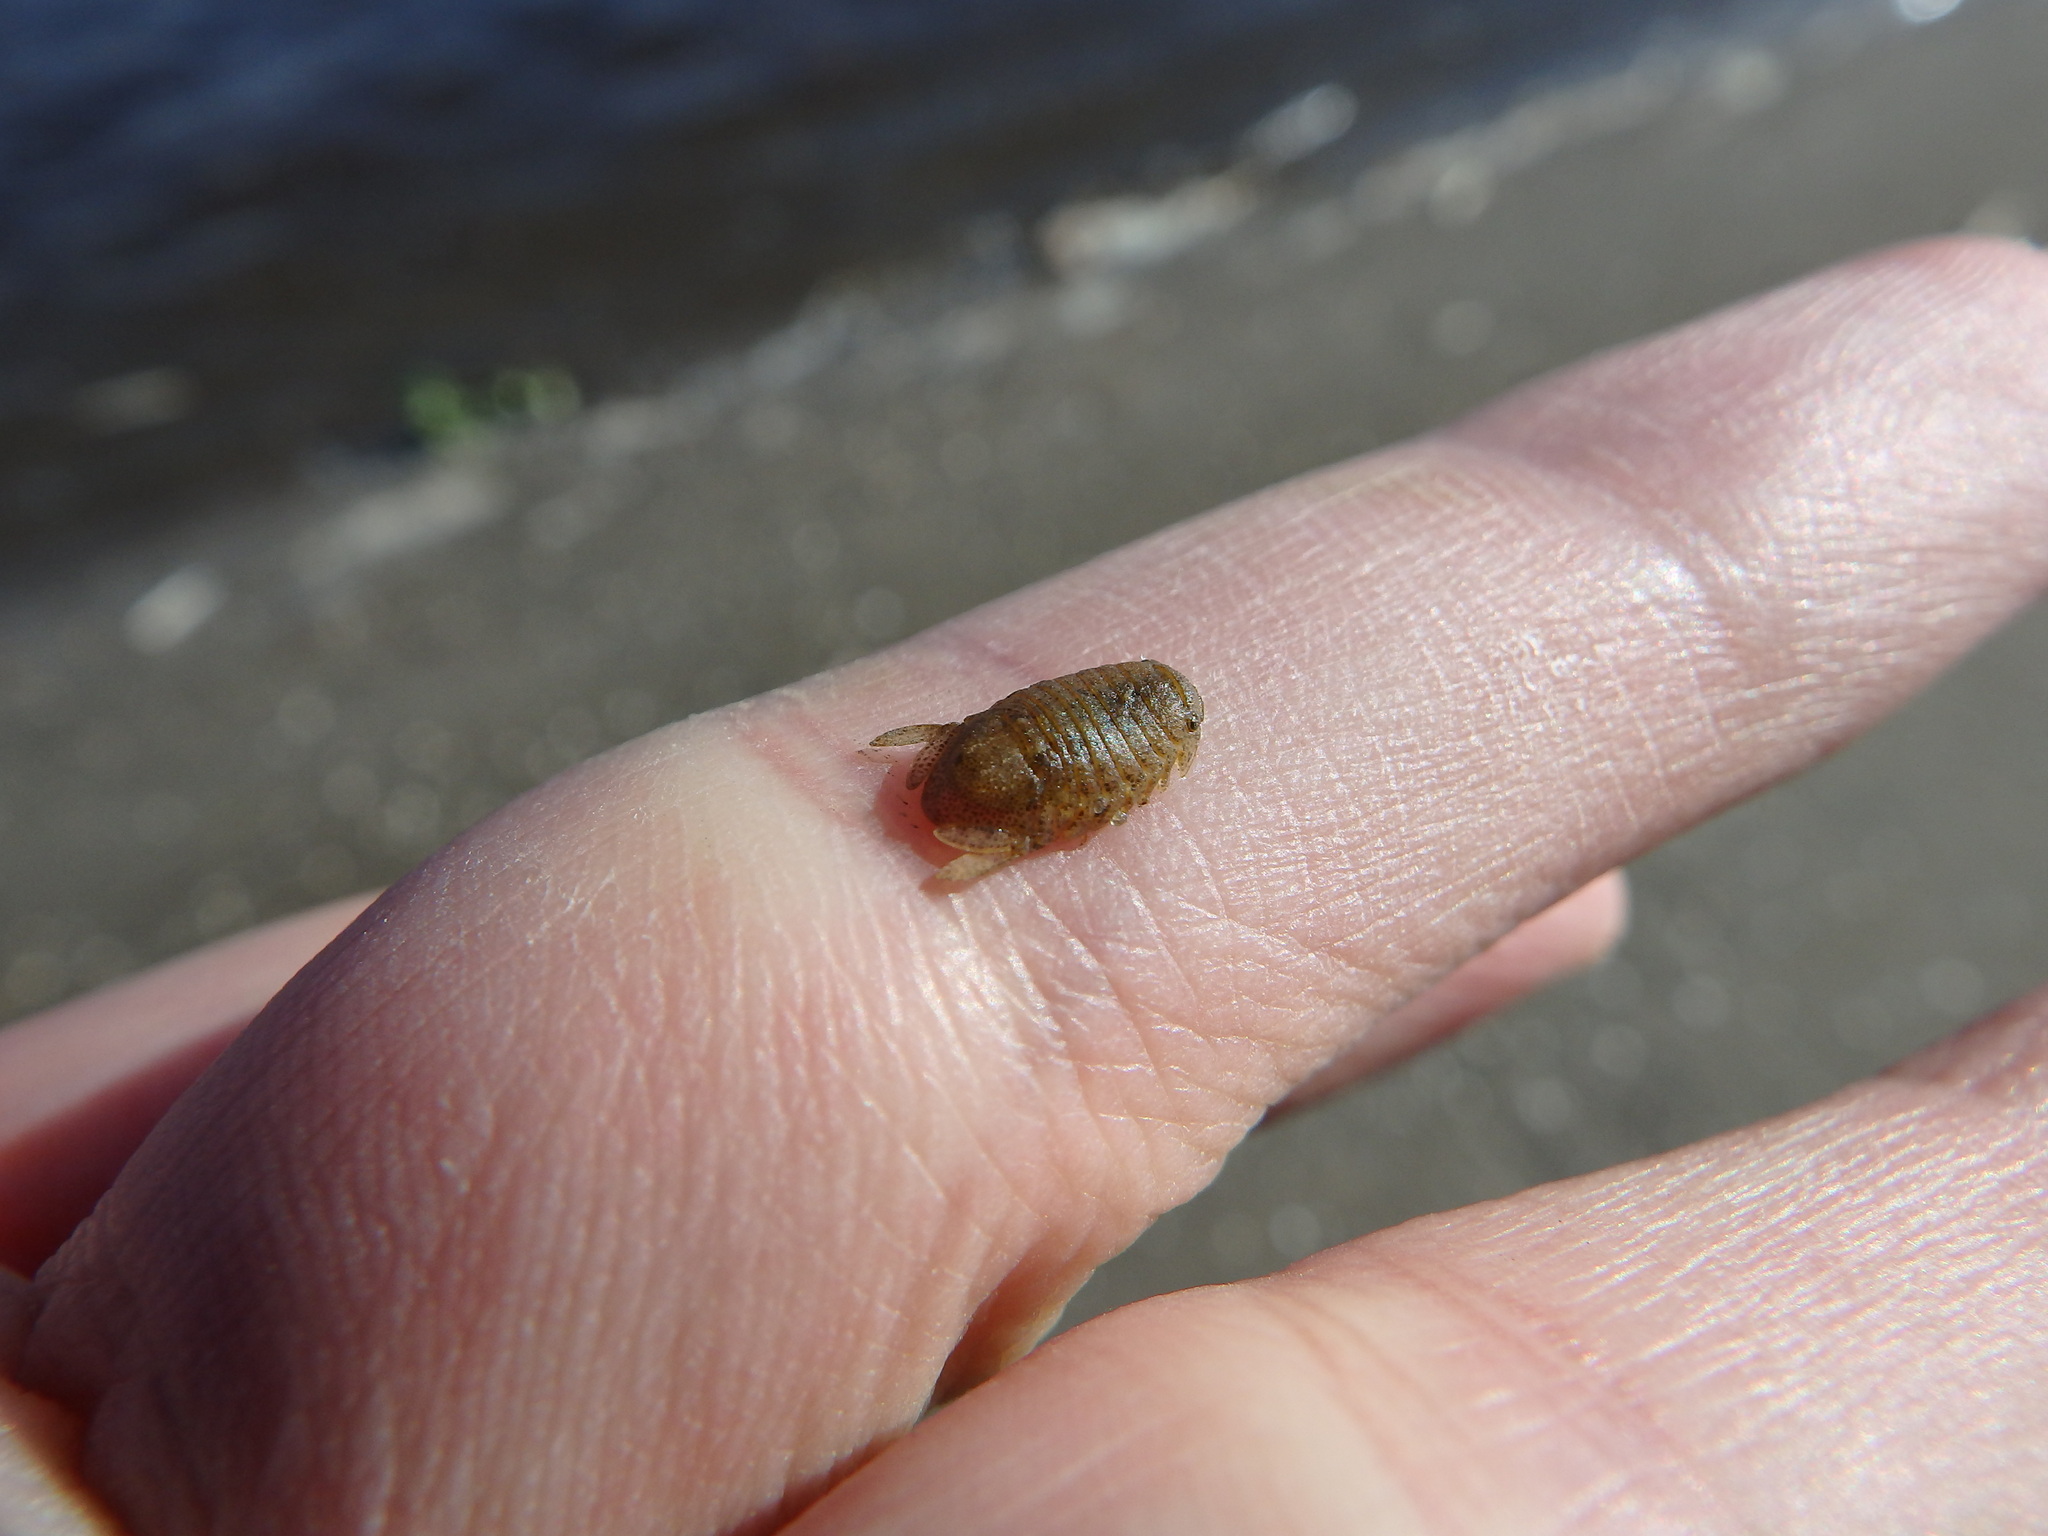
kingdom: Animalia
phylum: Arthropoda
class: Malacostraca
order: Isopoda
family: Sphaeromatidae
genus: Sphaeroma
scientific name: Sphaeroma serratum
